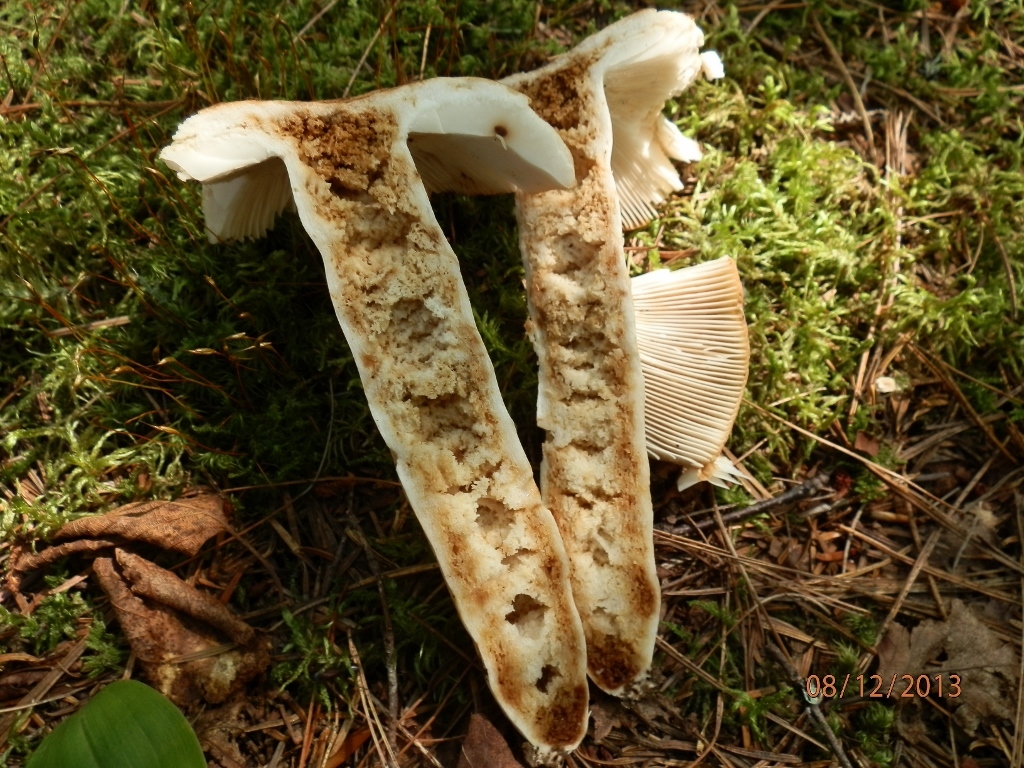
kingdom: Fungi
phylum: Basidiomycota
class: Agaricomycetes
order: Russulales
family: Russulaceae
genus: Russula
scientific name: Russula fragrantissima
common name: Almond-scented russula
